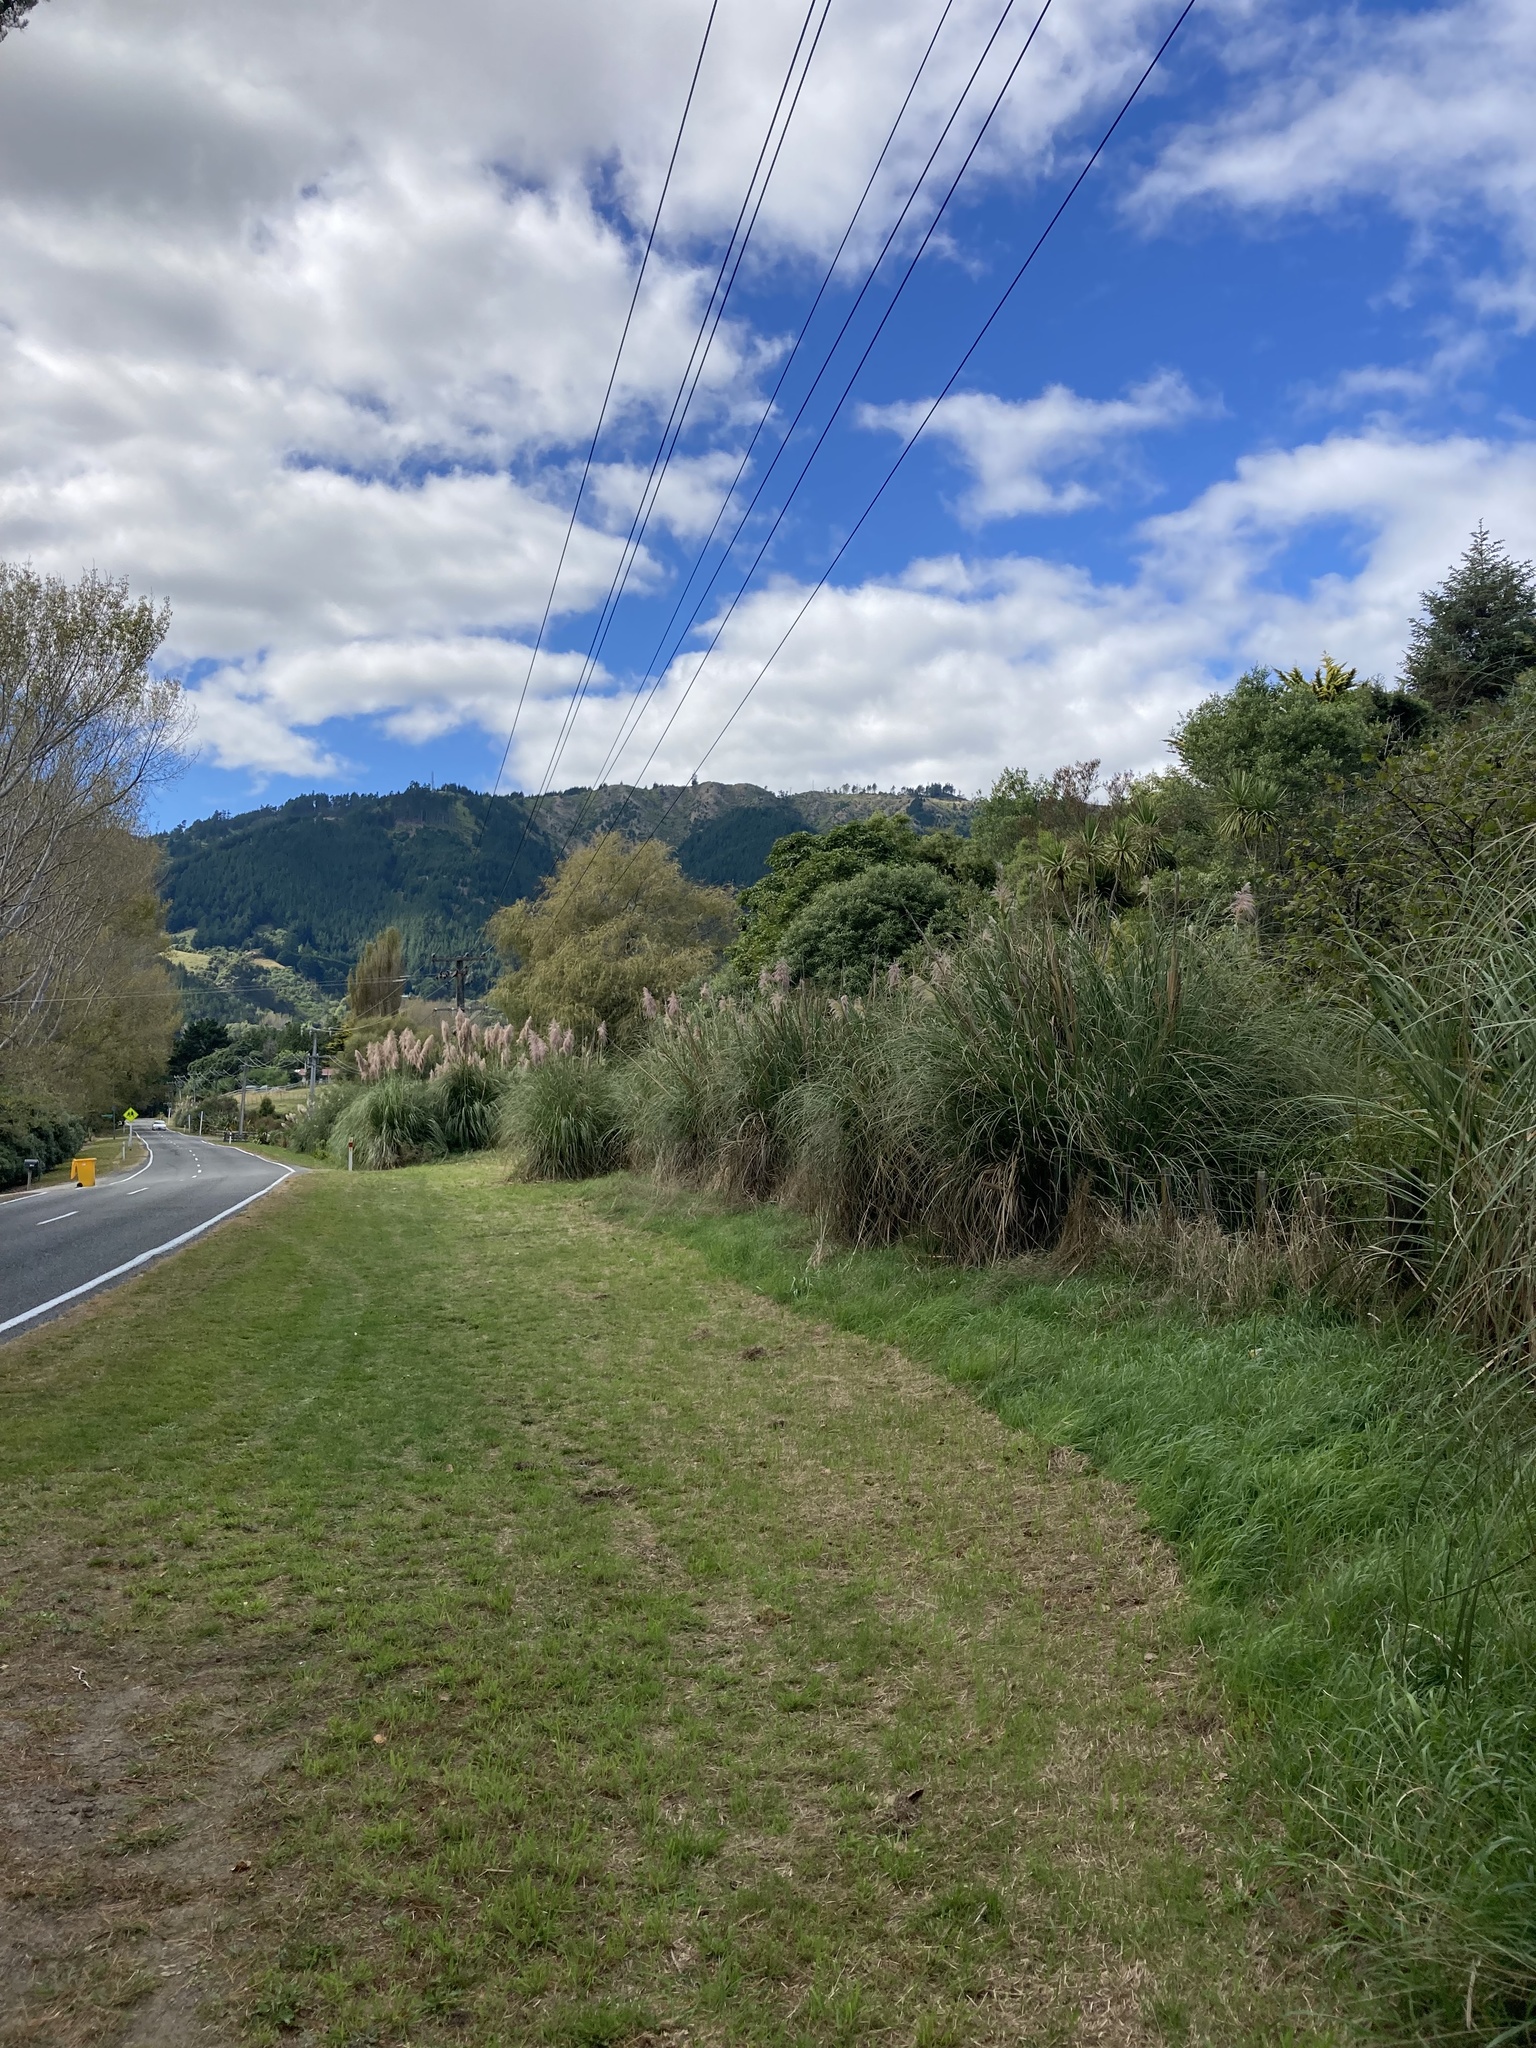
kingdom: Plantae
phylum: Tracheophyta
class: Liliopsida
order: Poales
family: Poaceae
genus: Cortaderia
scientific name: Cortaderia jubata
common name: Purple pampas grass
